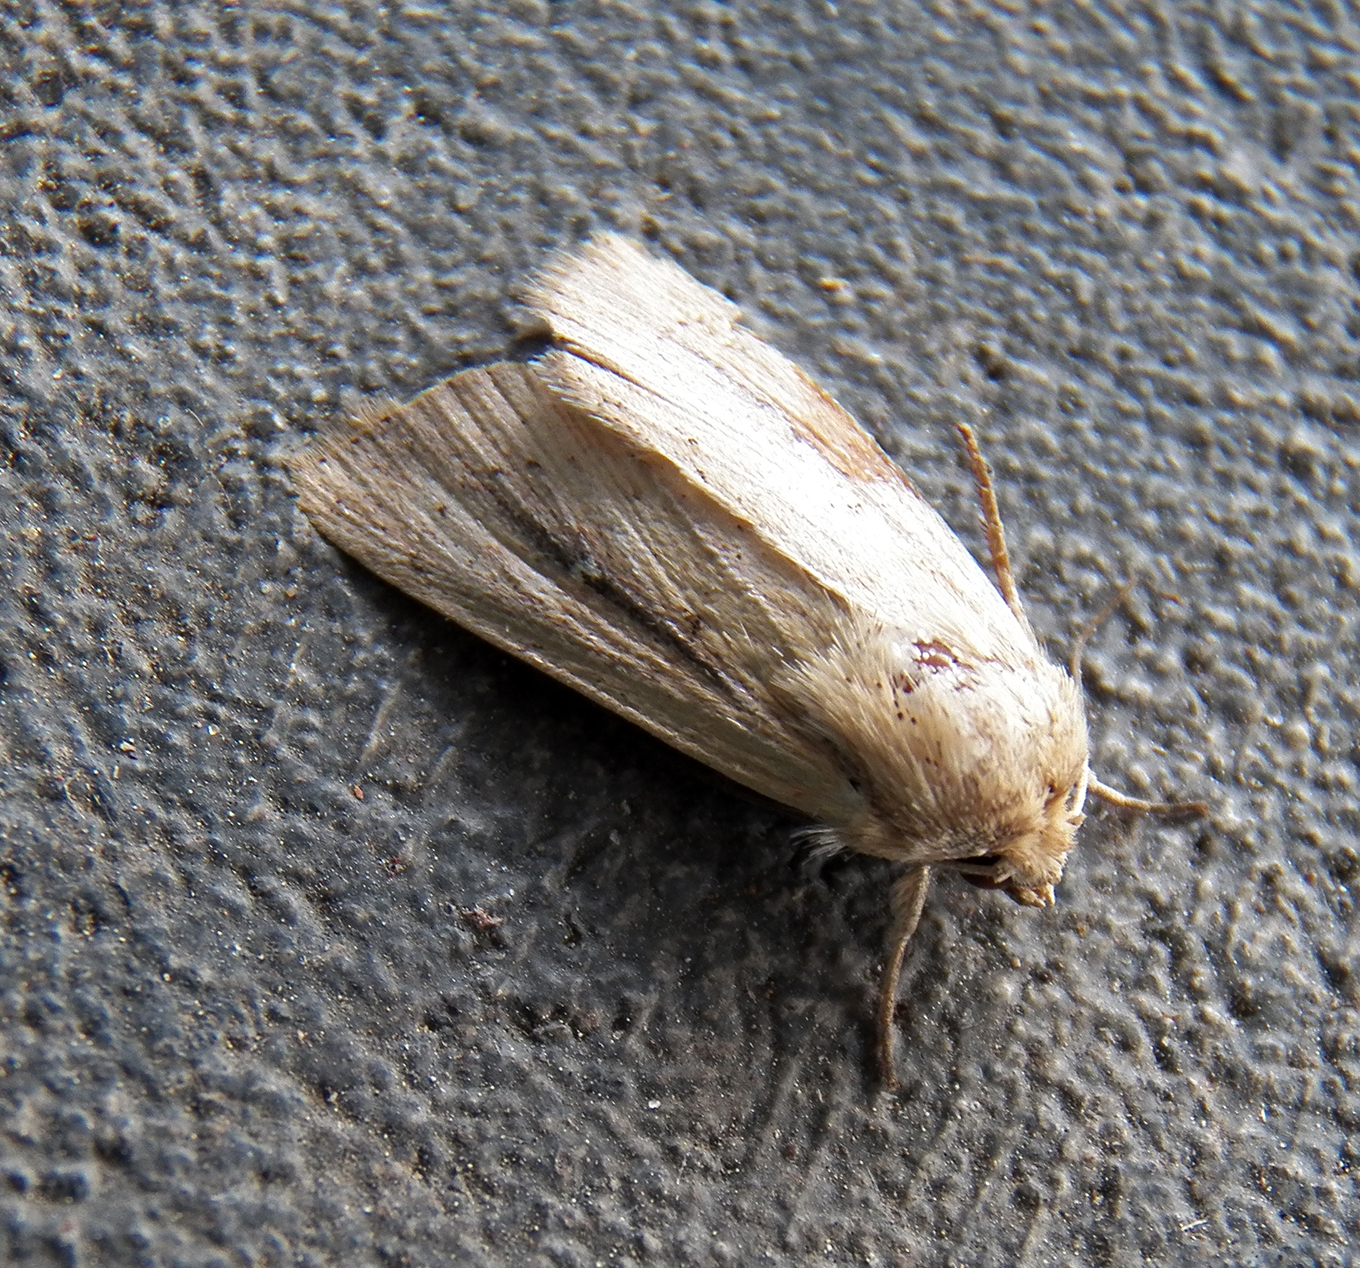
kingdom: Animalia
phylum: Arthropoda
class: Insecta
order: Lepidoptera
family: Noctuidae
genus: Leucania
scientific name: Leucania incognita
